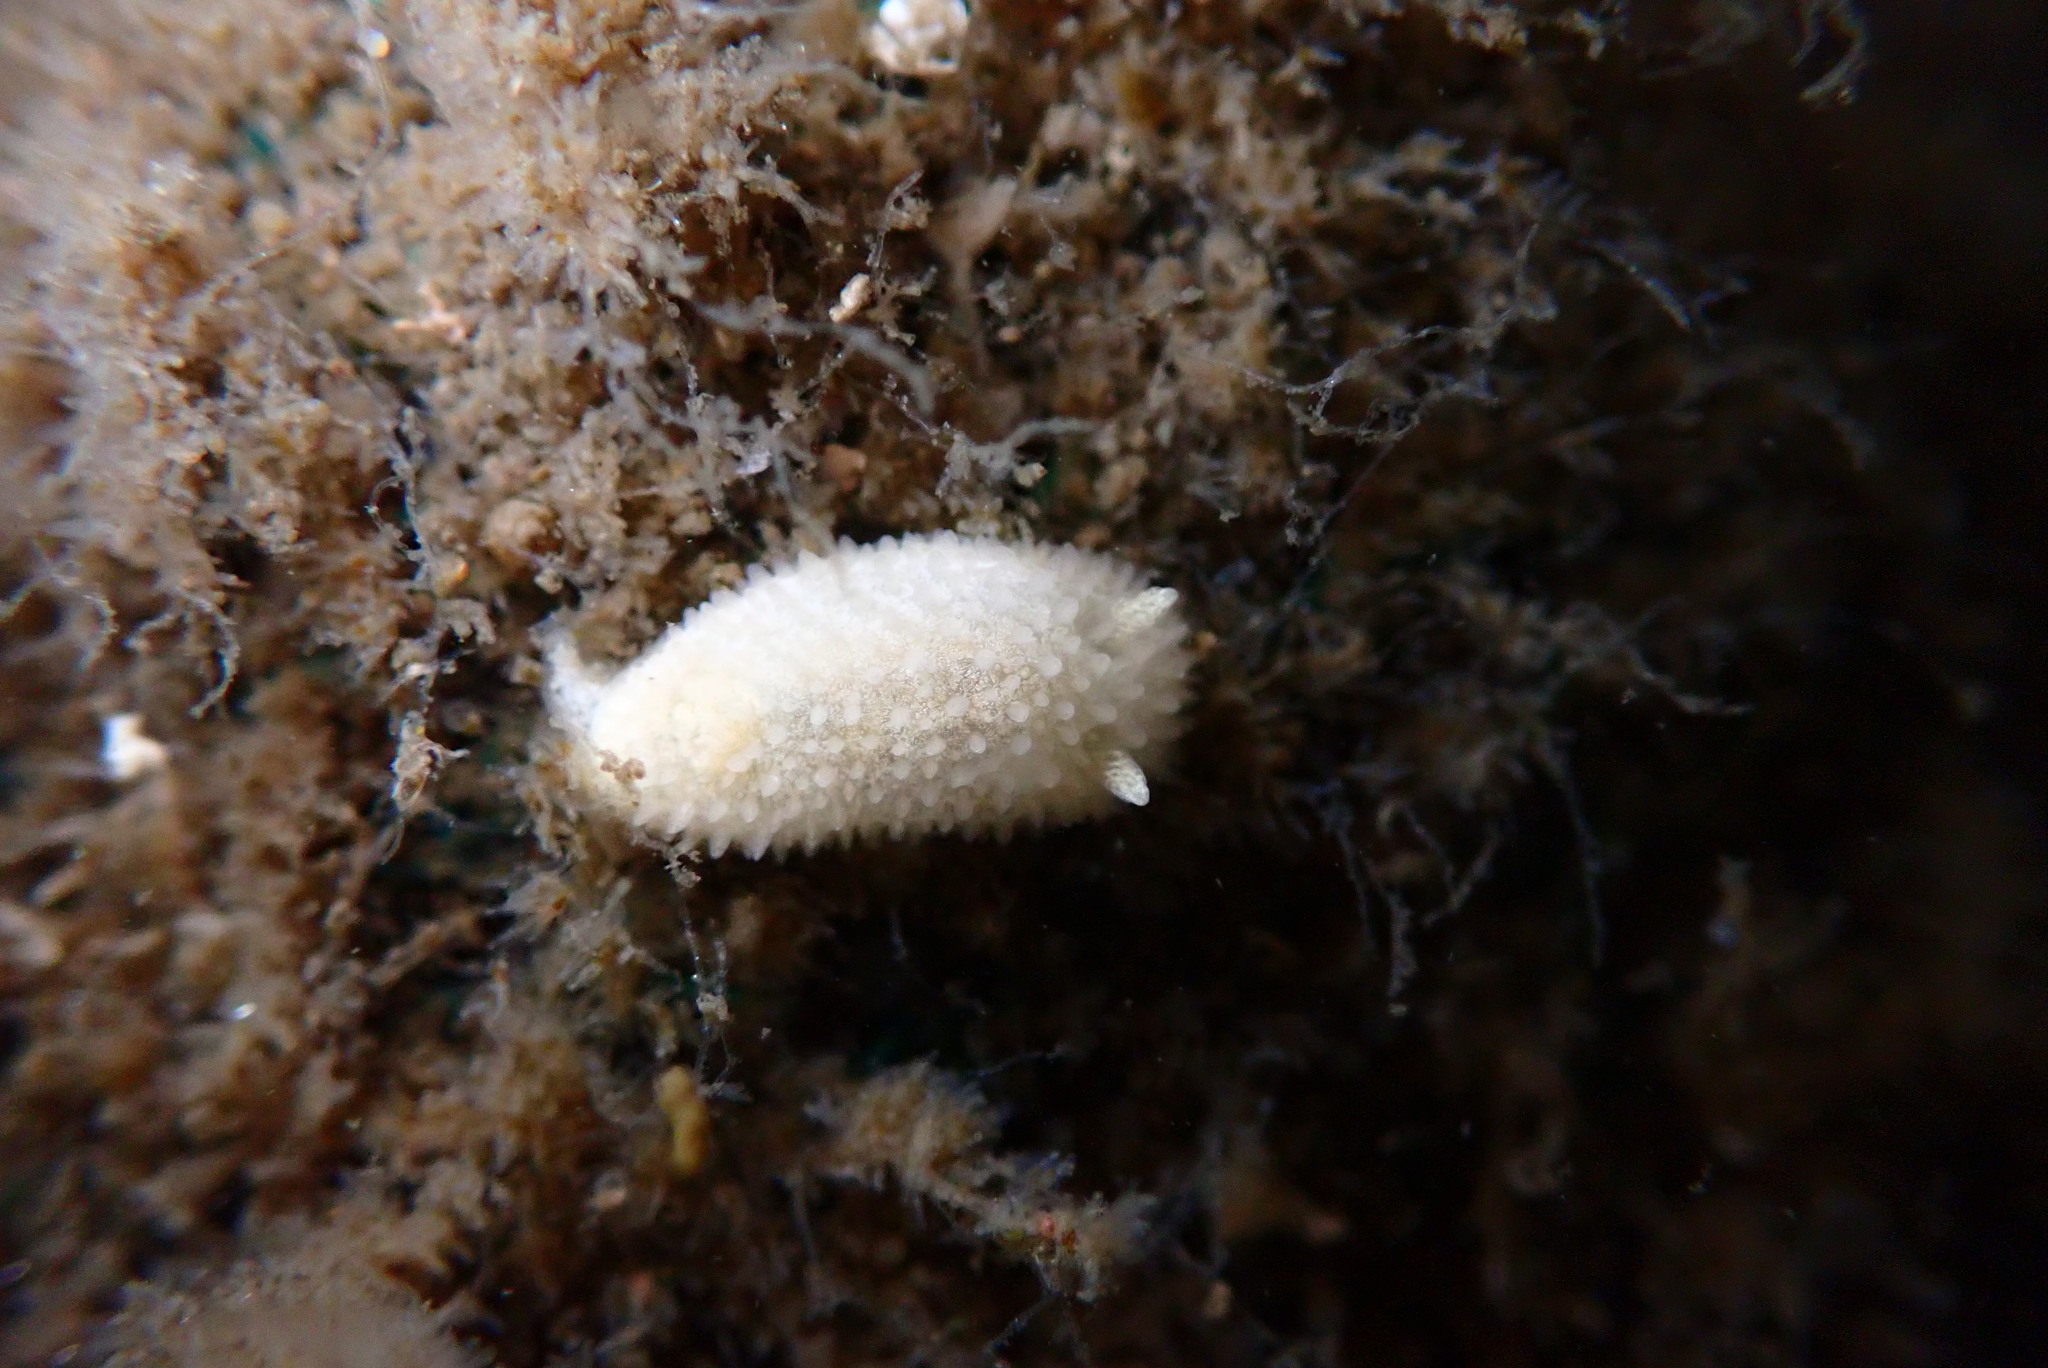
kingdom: Animalia
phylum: Mollusca
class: Gastropoda
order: Nudibranchia
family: Calycidorididae
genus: Diaphorodoris
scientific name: Diaphorodoris lirulatocauda
